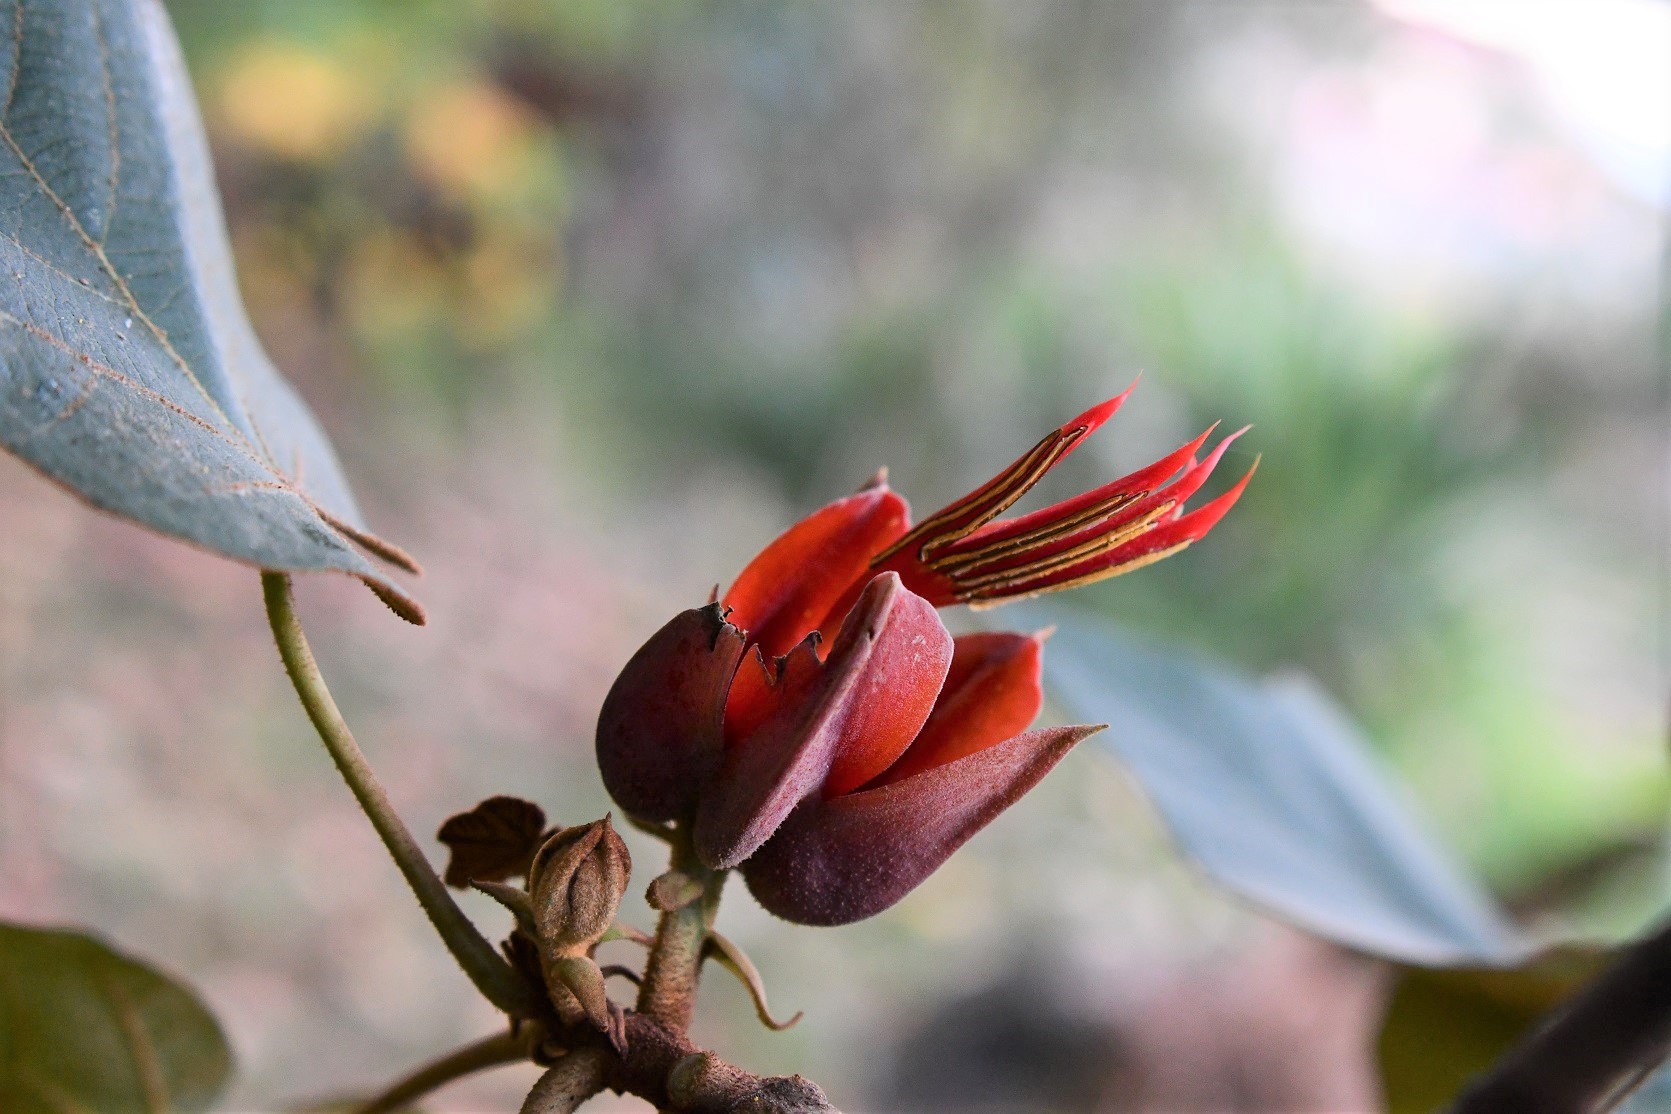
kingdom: Plantae
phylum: Tracheophyta
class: Magnoliopsida
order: Malvales
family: Malvaceae
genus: Chiranthodendron
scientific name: Chiranthodendron pentadactylon
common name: Mexican-hat-plant
